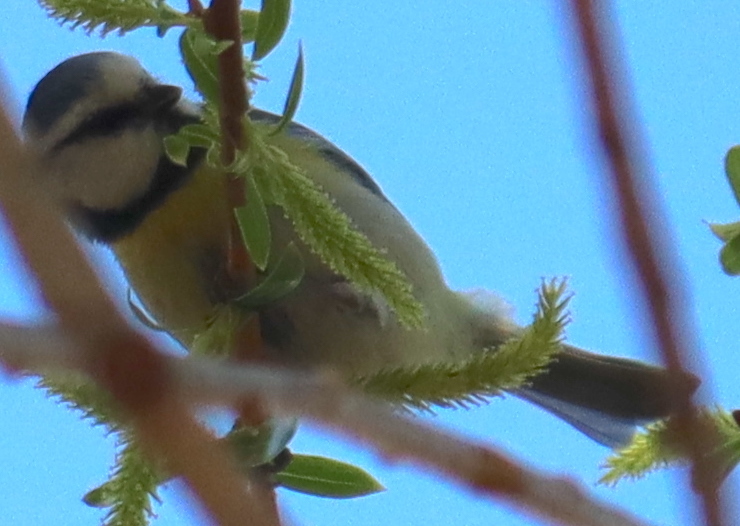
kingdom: Animalia
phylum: Chordata
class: Aves
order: Passeriformes
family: Paridae
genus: Cyanistes
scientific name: Cyanistes caeruleus
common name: Eurasian blue tit
